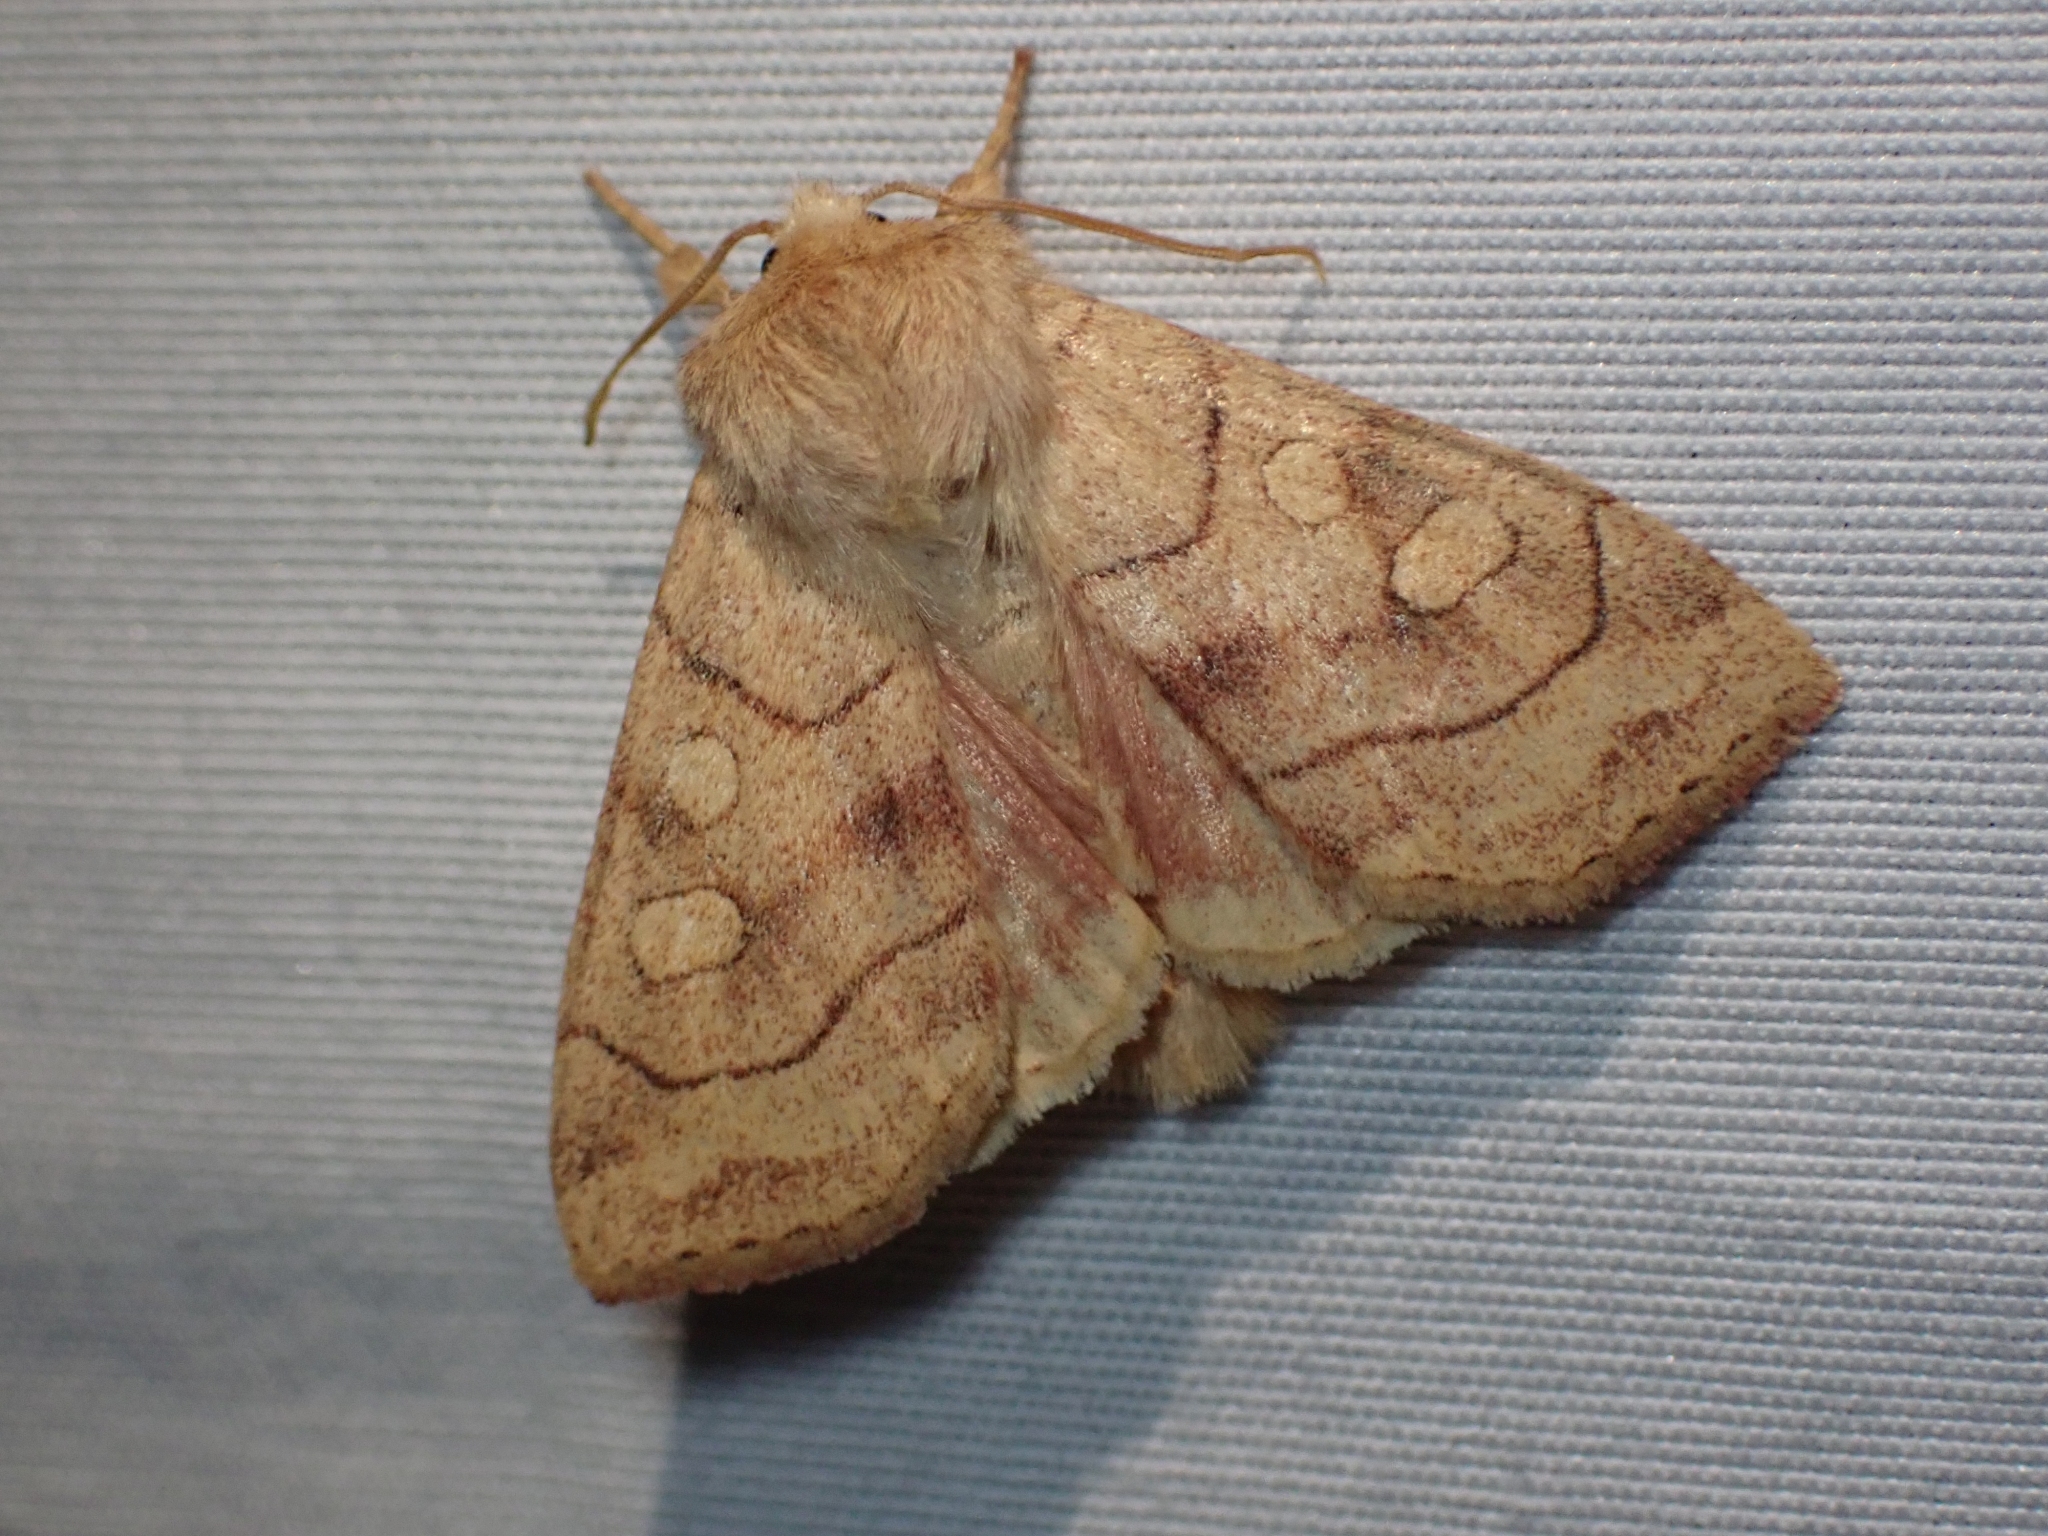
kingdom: Animalia
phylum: Arthropoda
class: Insecta
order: Lepidoptera
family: Noctuidae
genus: Enargia
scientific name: Enargia decolor
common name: Aspen twoleaf tier moth
